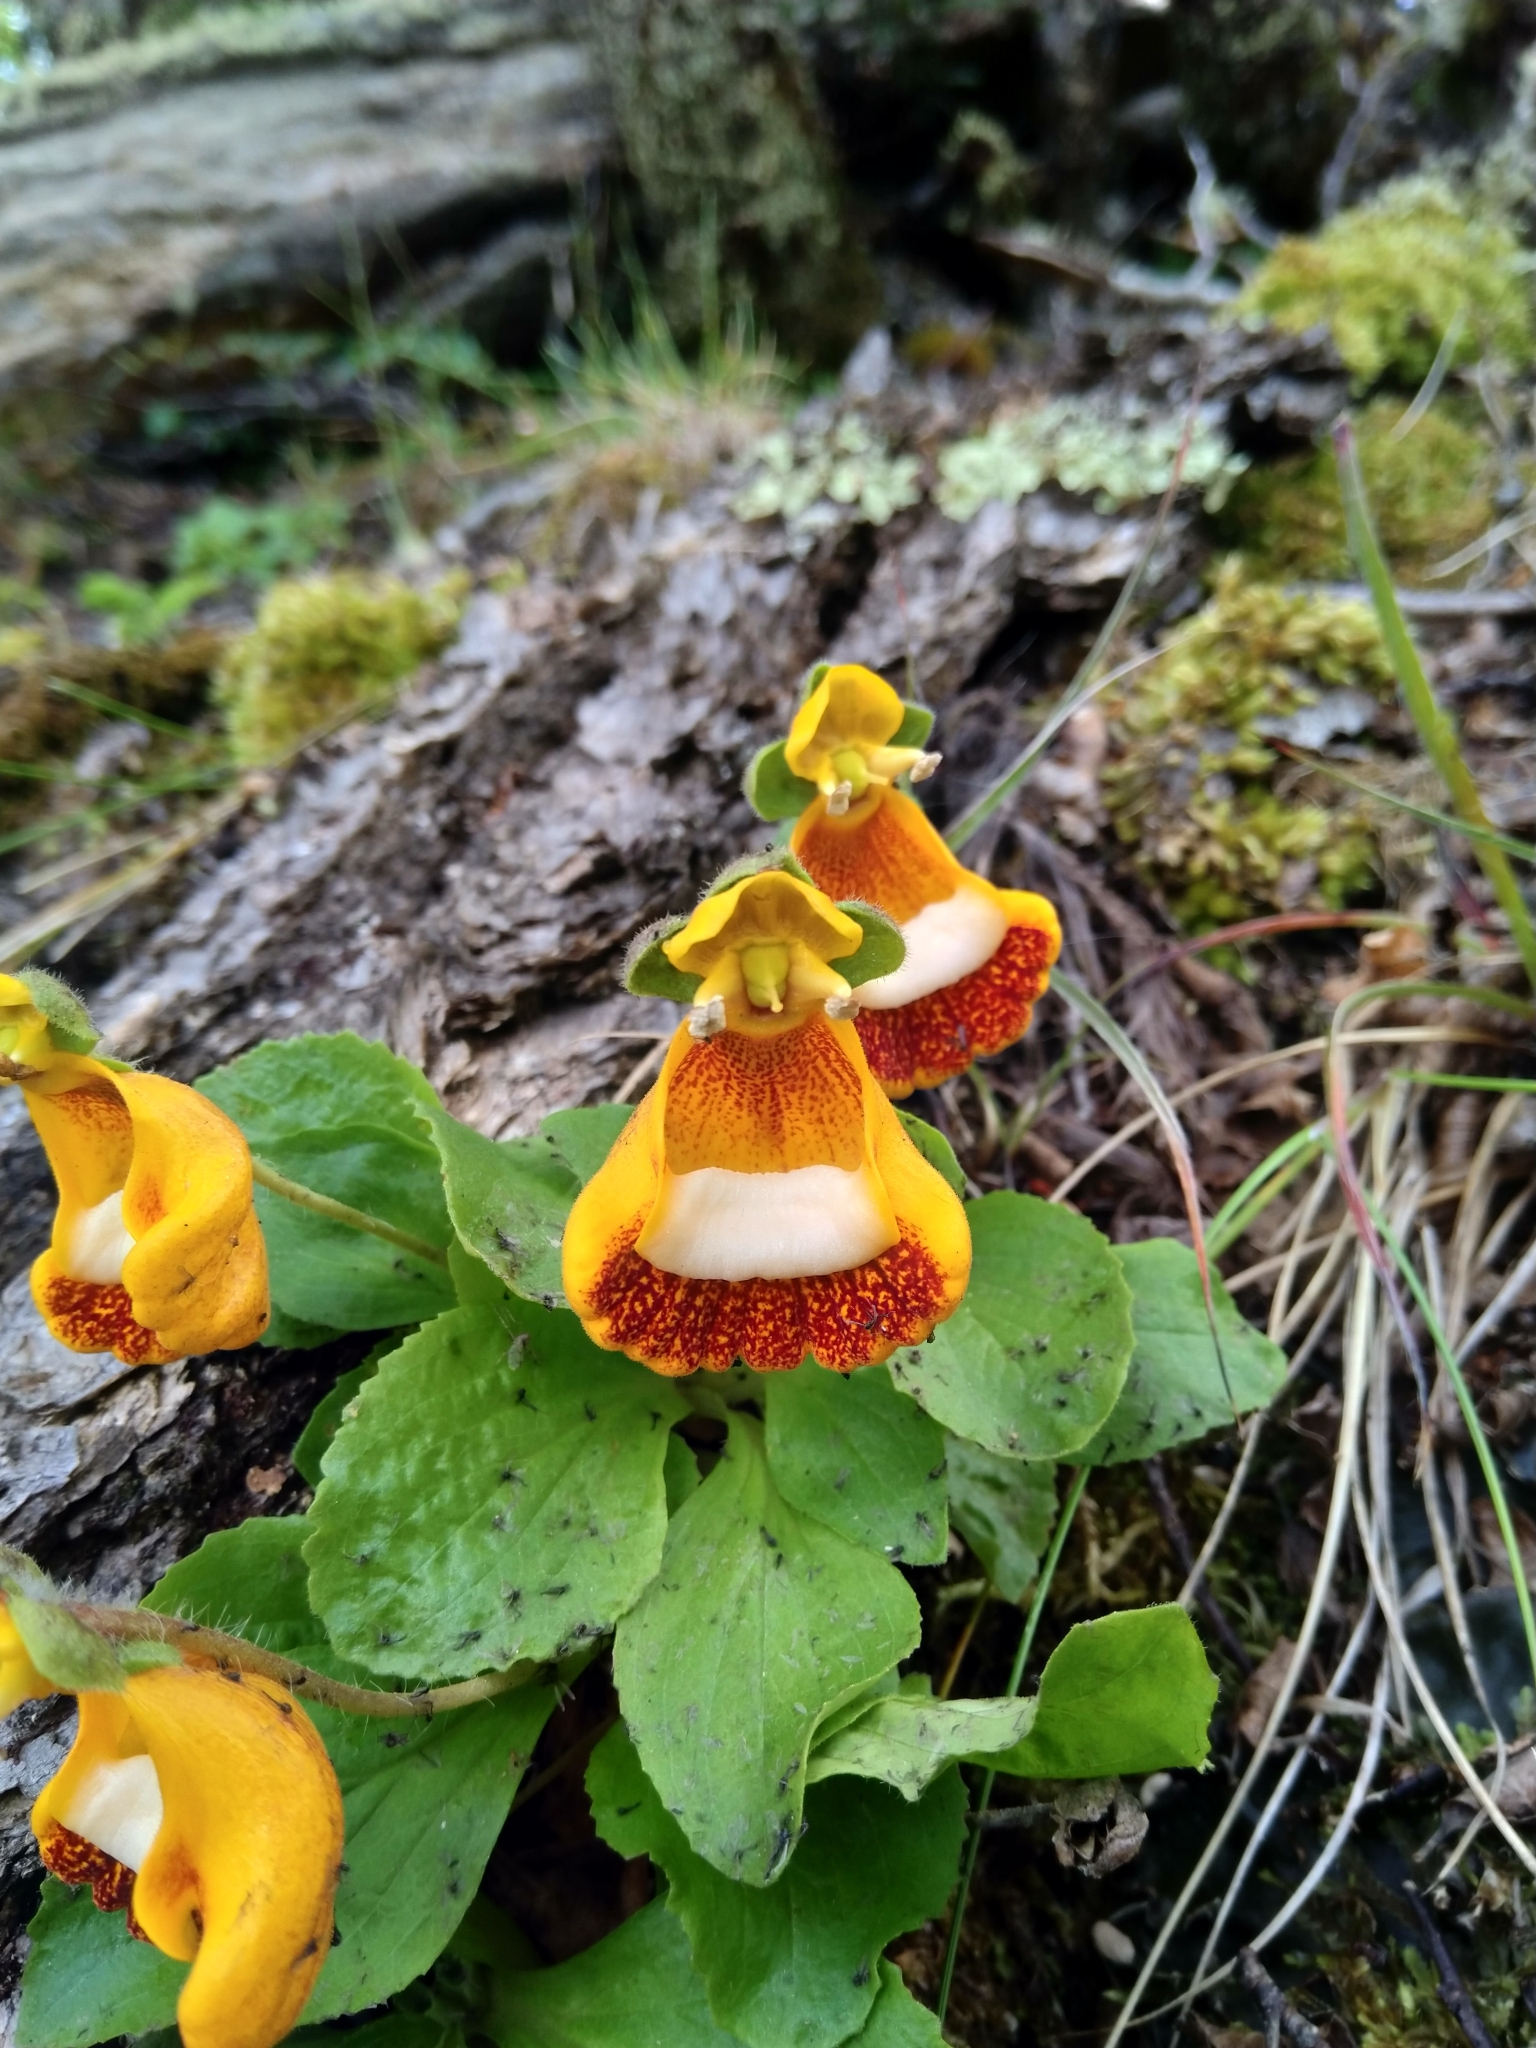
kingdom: Plantae
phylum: Tracheophyta
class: Magnoliopsida
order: Lamiales
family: Calceolariaceae
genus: Calceolaria
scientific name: Calceolaria uniflora
